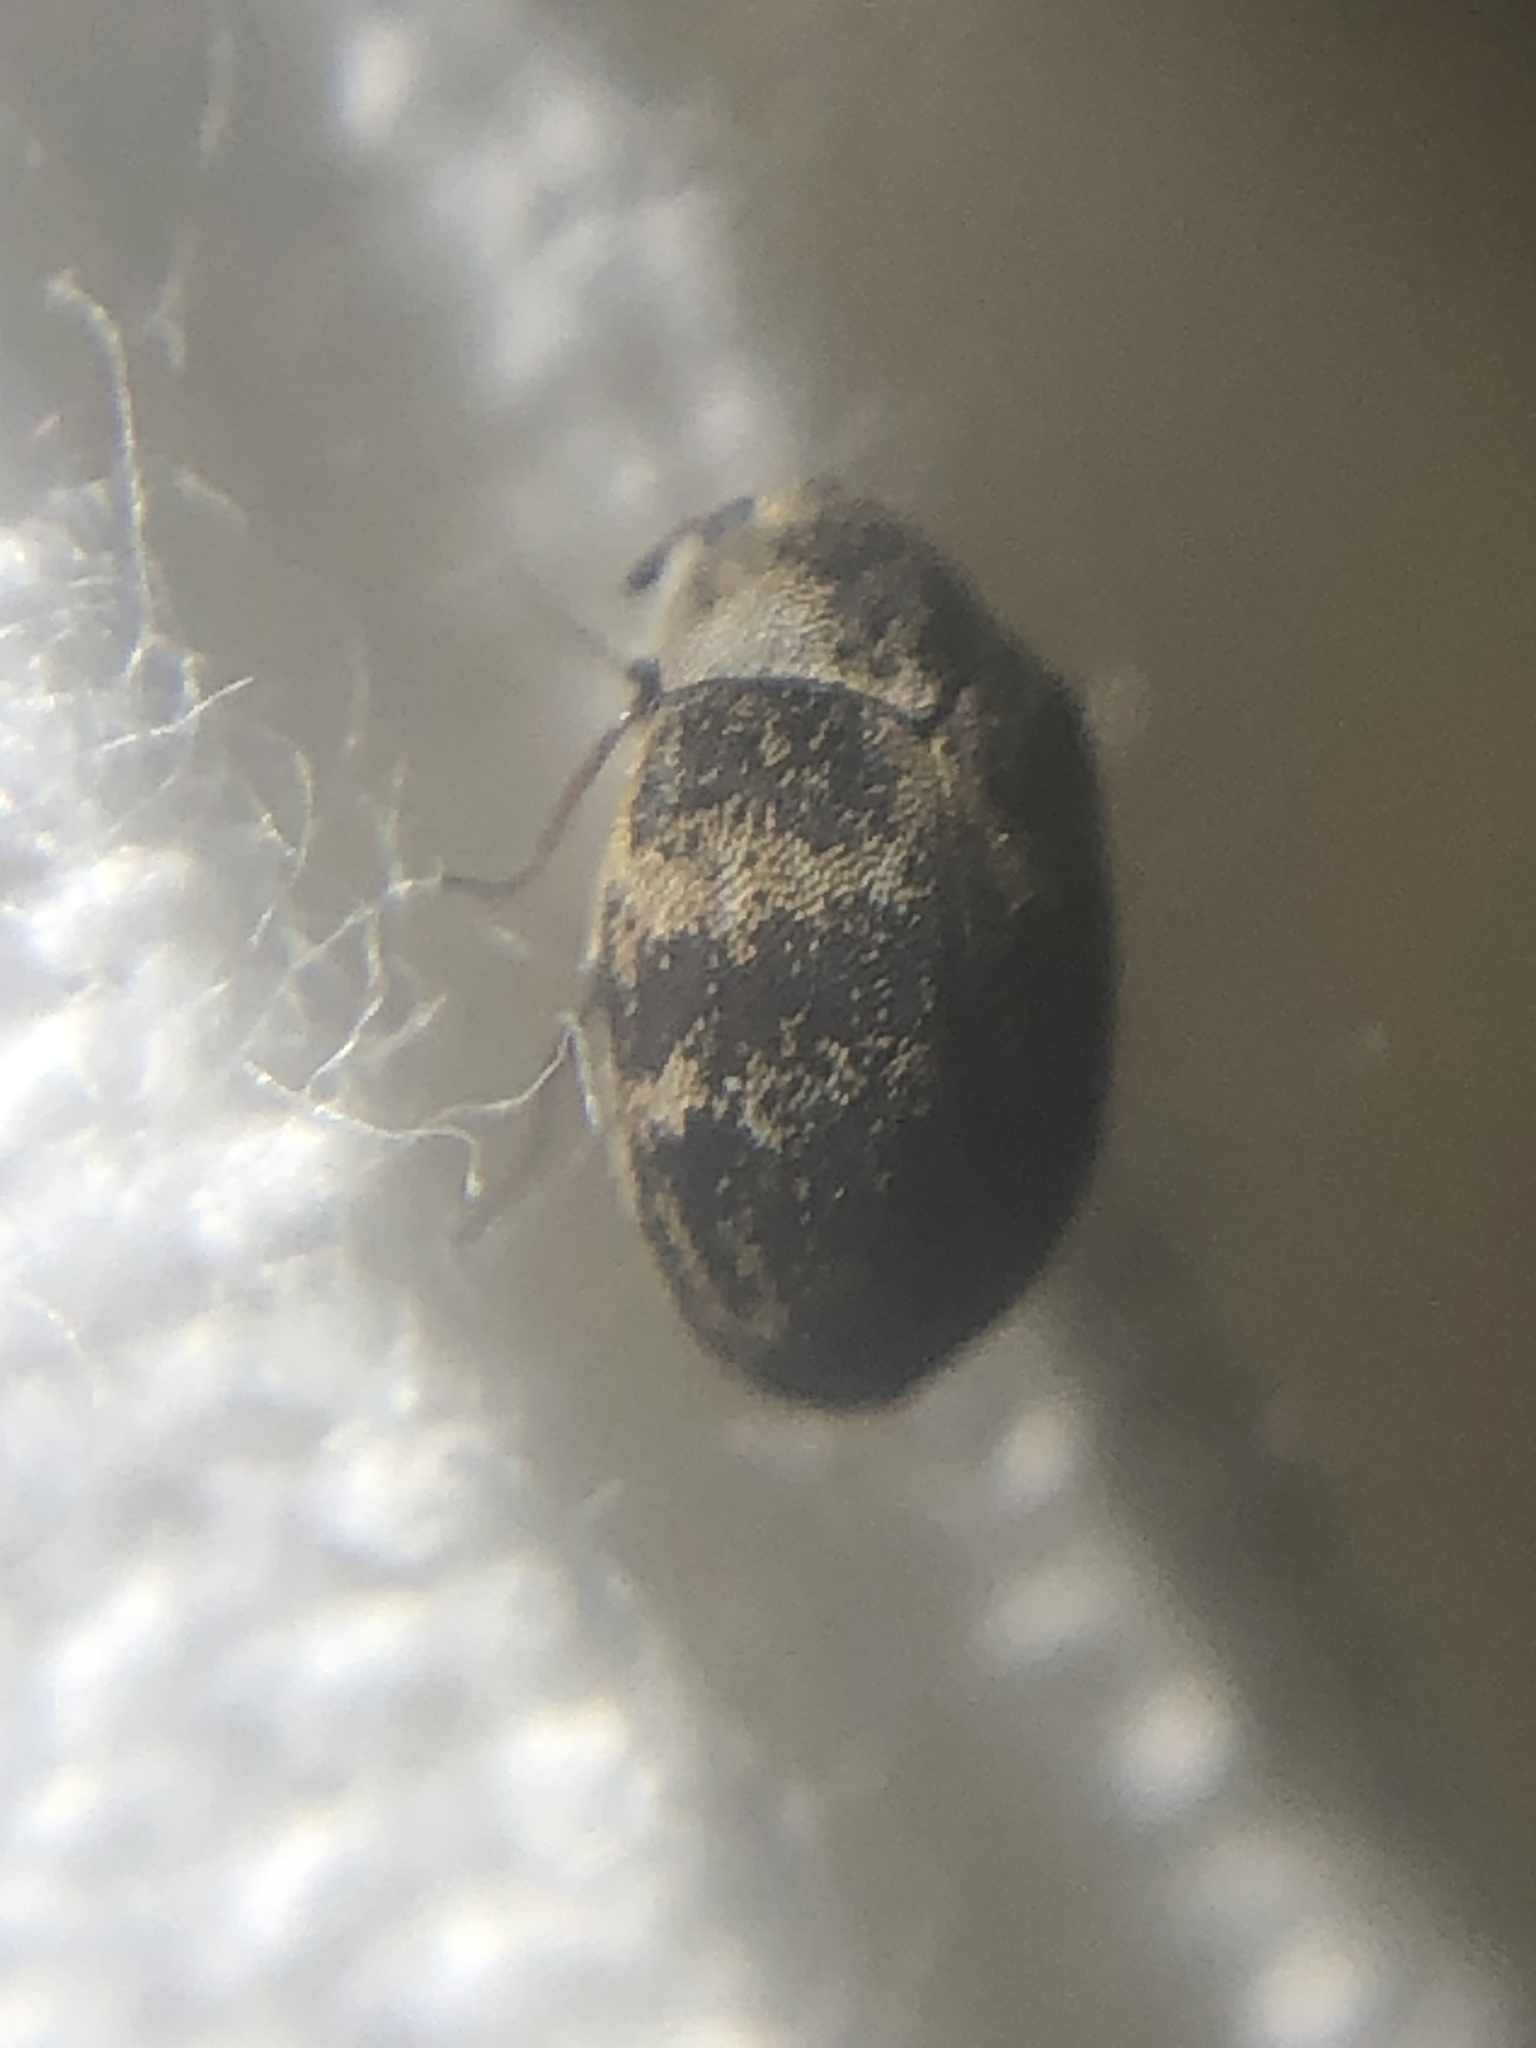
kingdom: Animalia
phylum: Arthropoda
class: Insecta
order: Coleoptera
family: Dermestidae
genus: Anthrenus
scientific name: Anthrenus fuscus
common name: Mill carpet beetle
